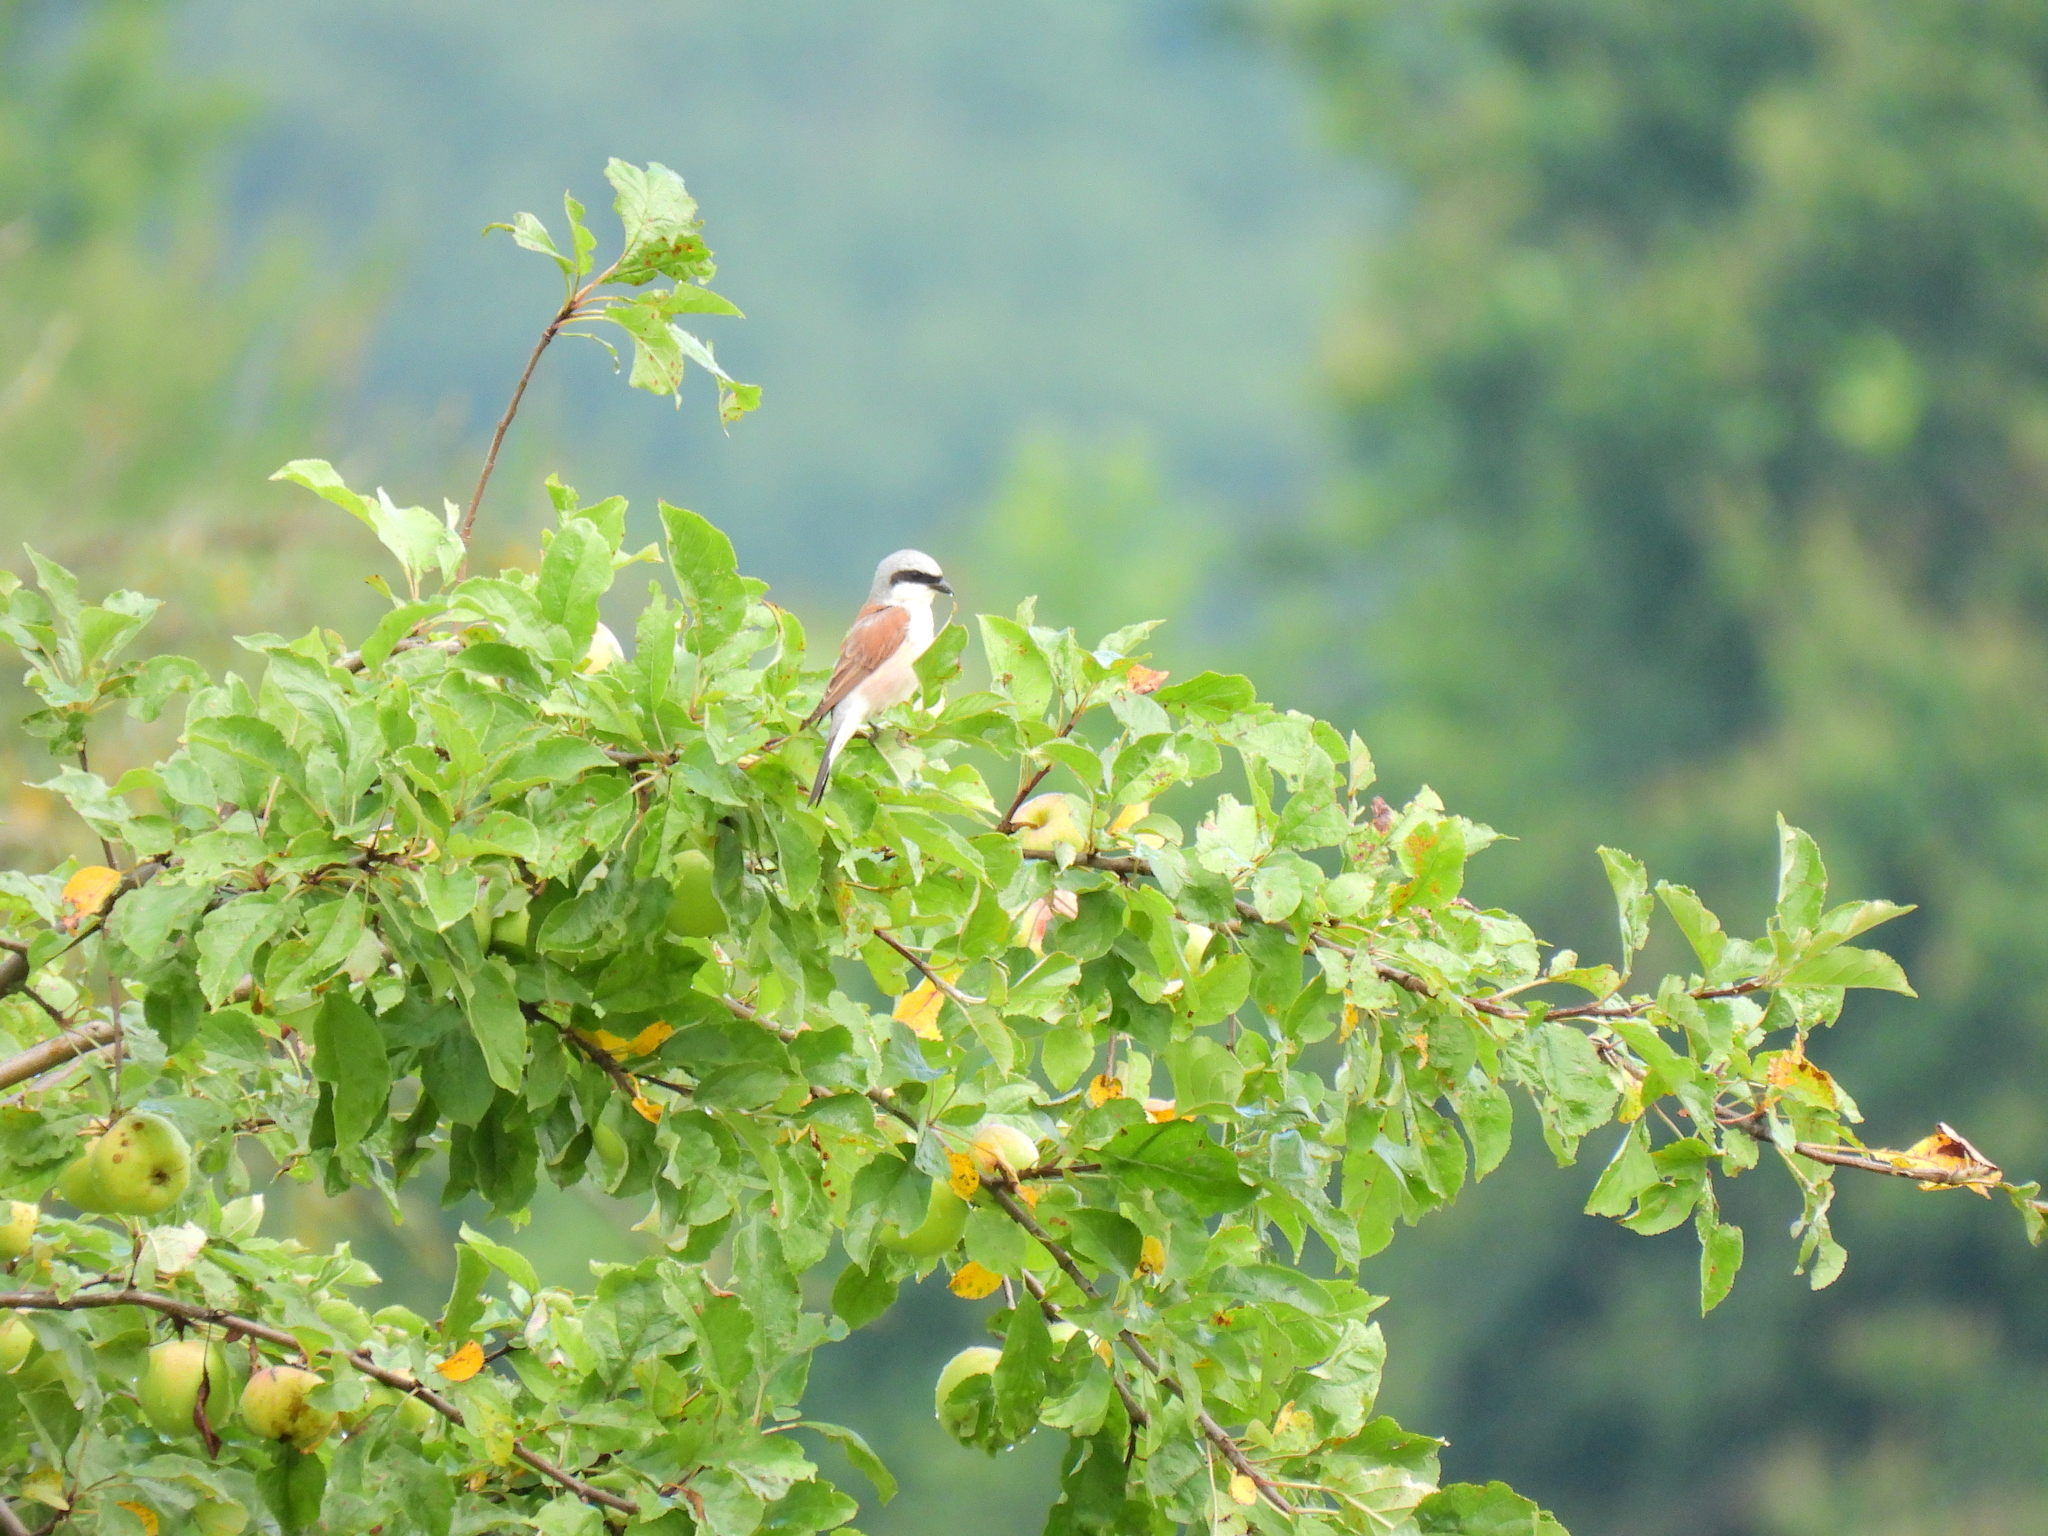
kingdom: Animalia
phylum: Chordata
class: Aves
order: Passeriformes
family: Laniidae
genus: Lanius
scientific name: Lanius collurio
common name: Red-backed shrike
